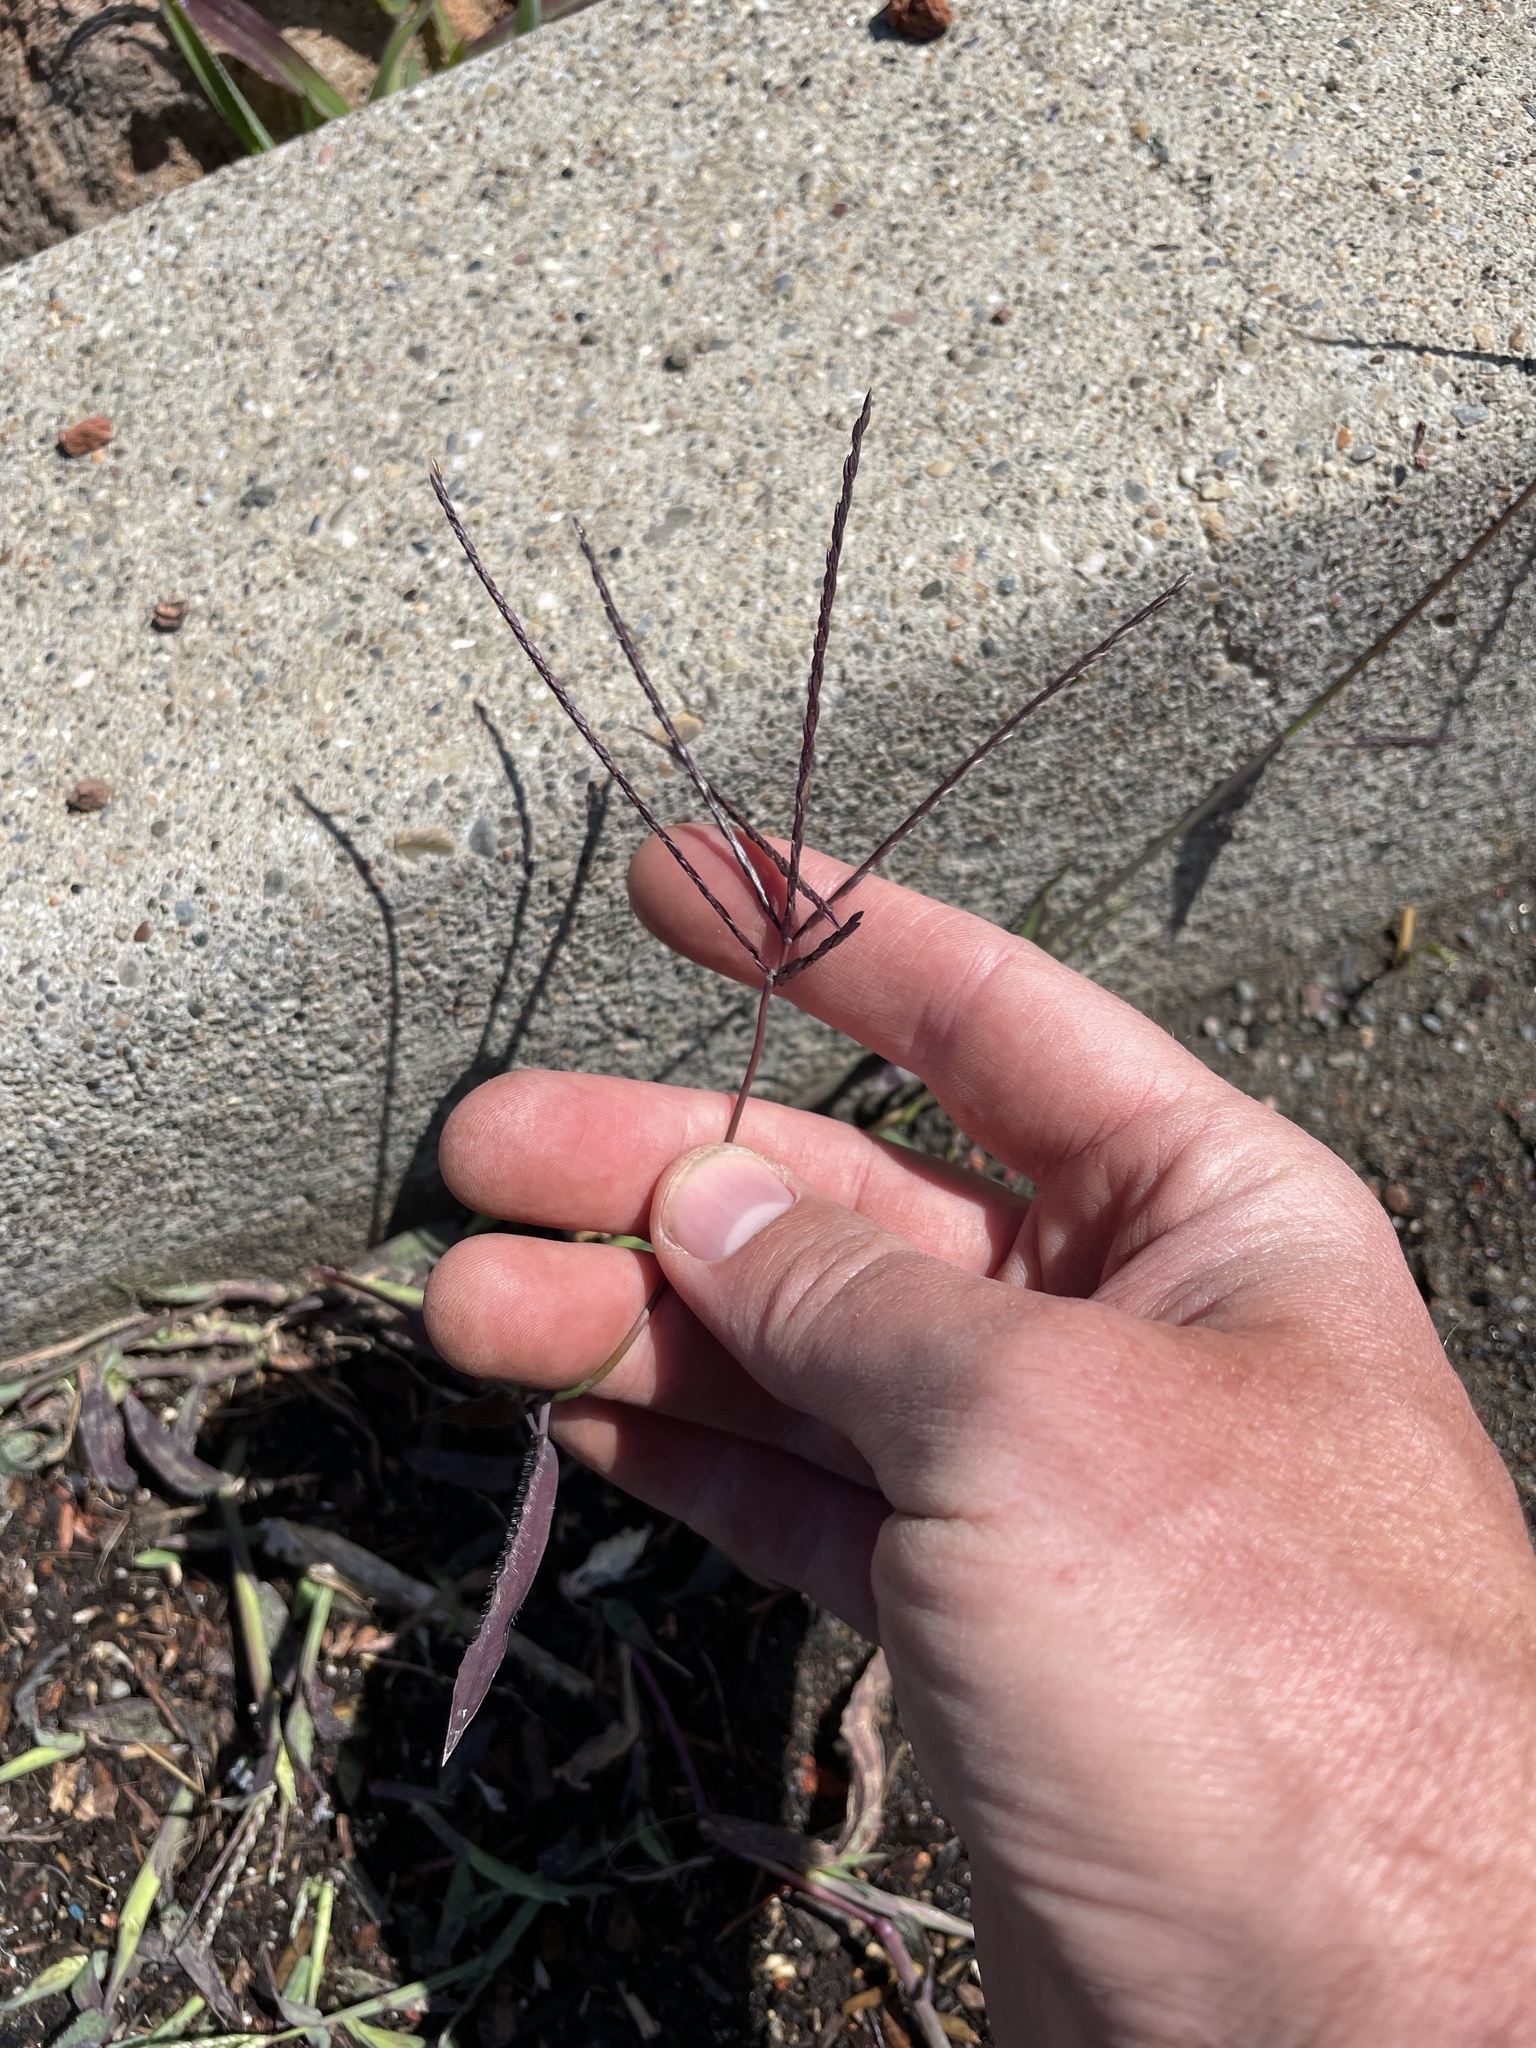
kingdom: Plantae
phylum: Tracheophyta
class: Liliopsida
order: Poales
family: Poaceae
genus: Digitaria
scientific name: Digitaria sanguinalis
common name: Hairy crabgrass
